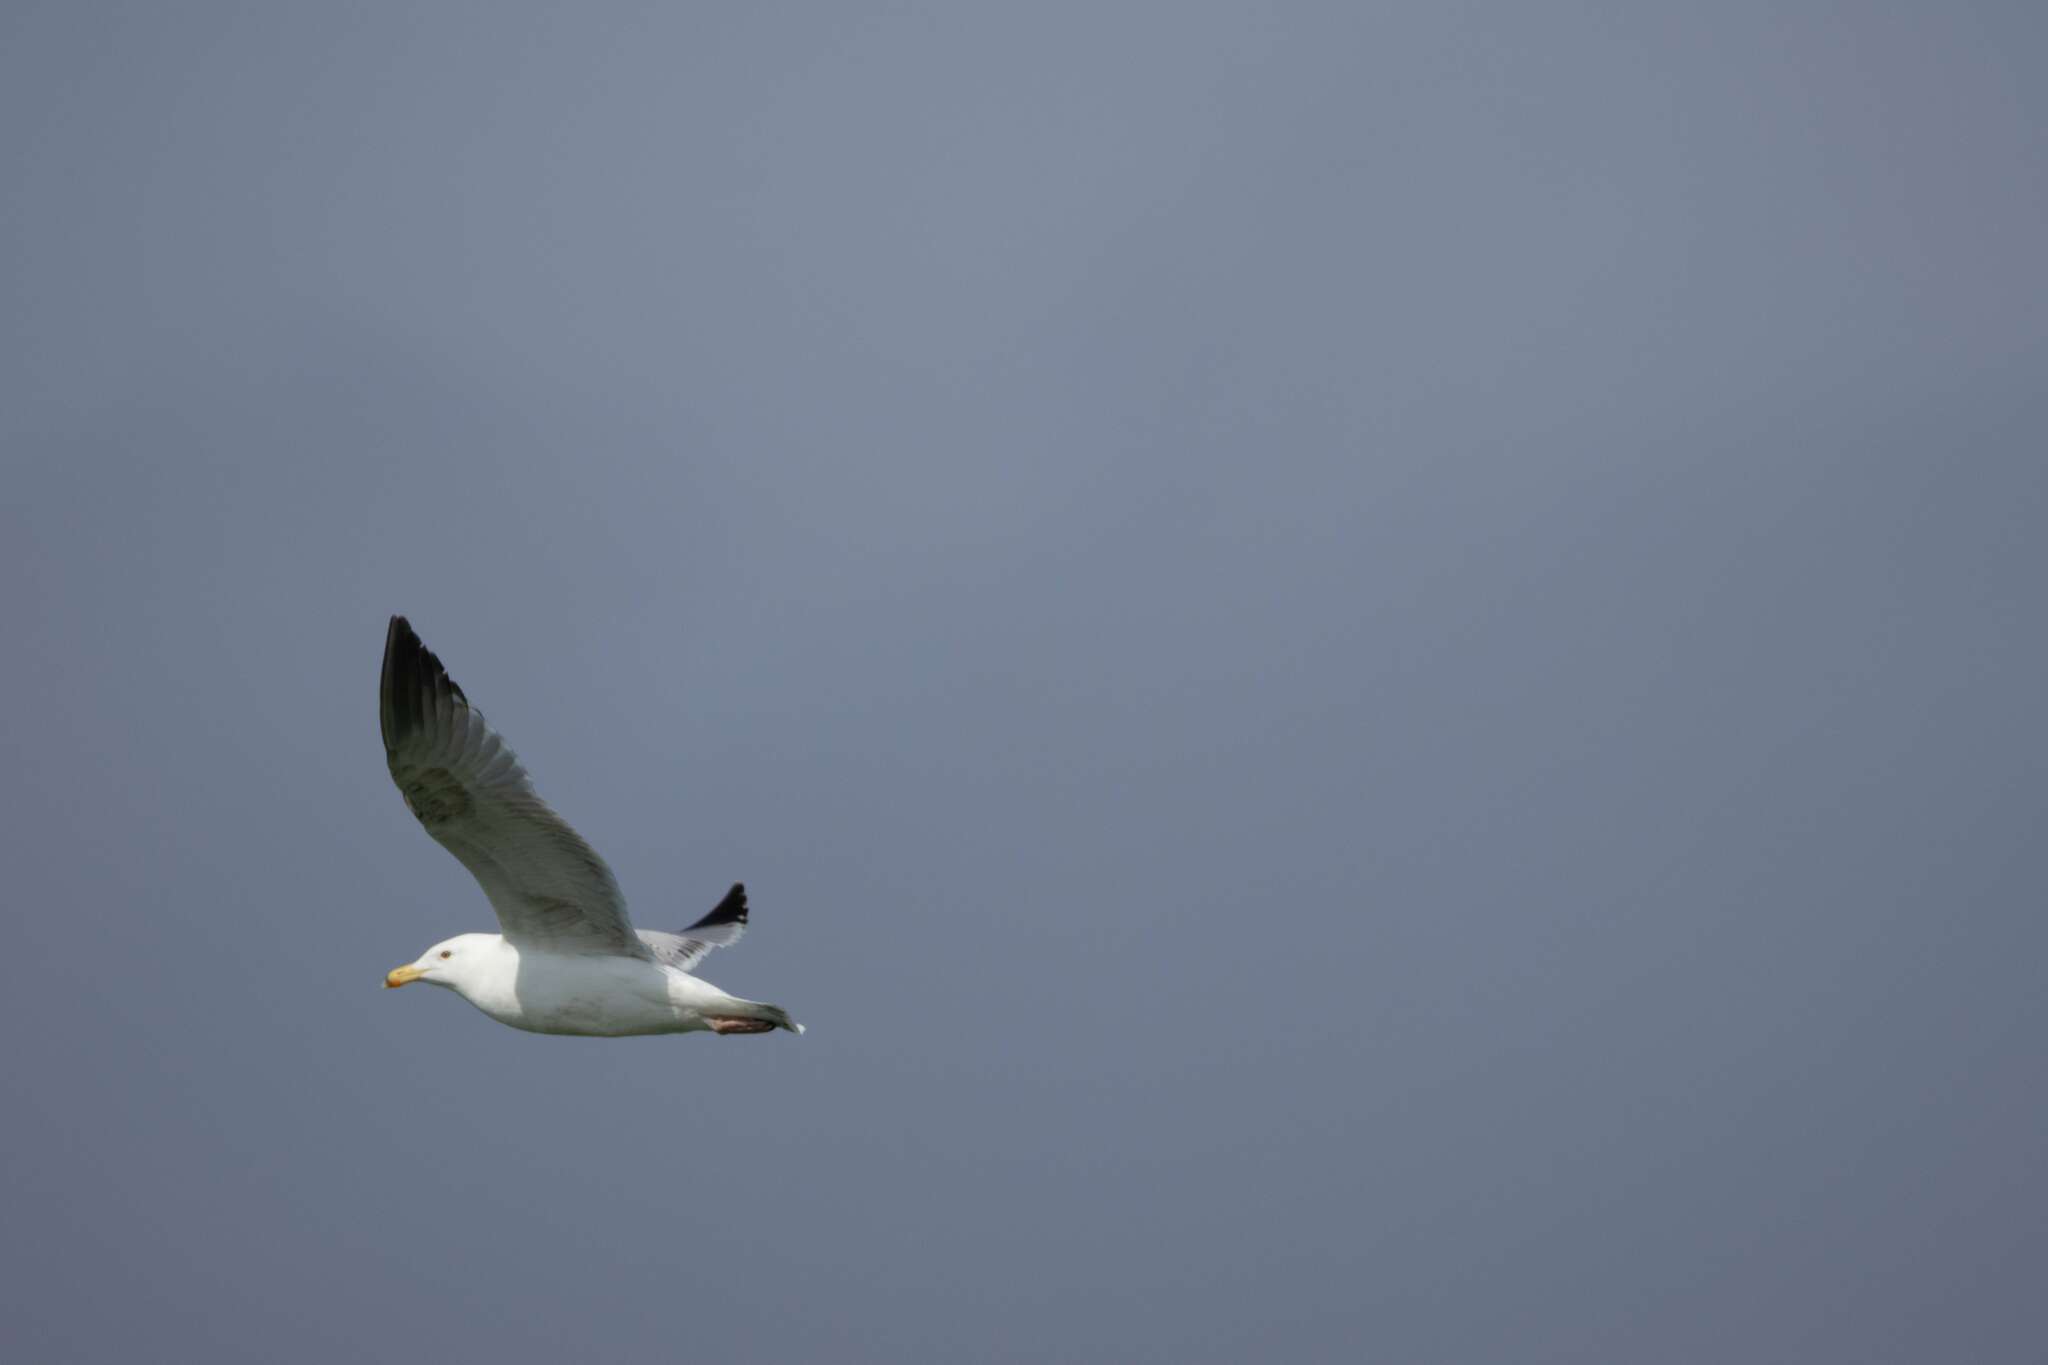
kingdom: Animalia
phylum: Chordata
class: Aves
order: Charadriiformes
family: Laridae
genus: Larus
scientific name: Larus argentatus
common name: Herring gull
